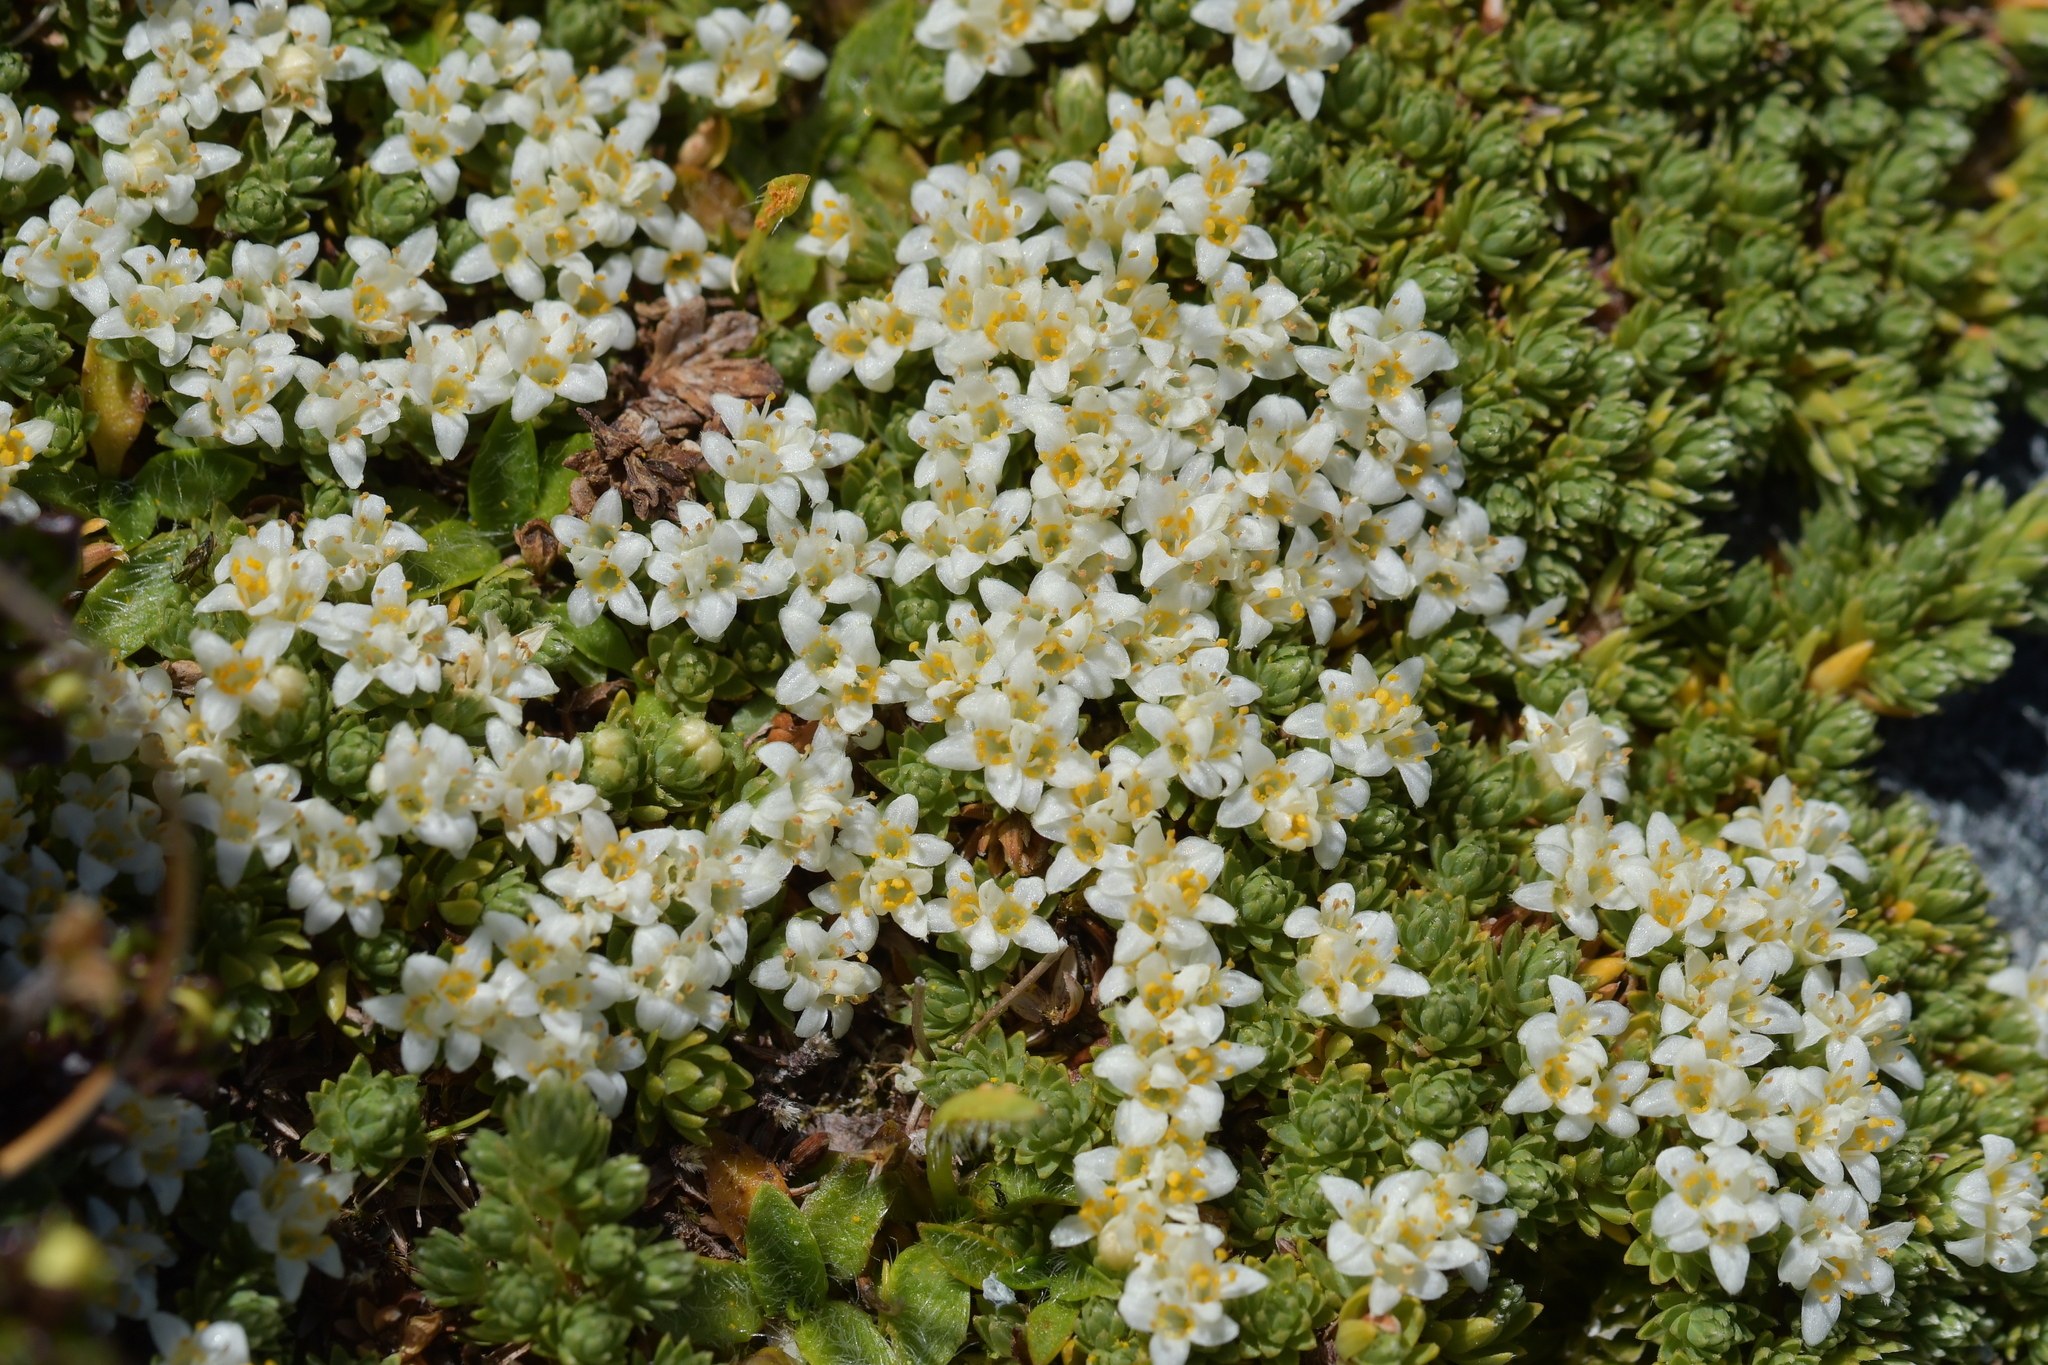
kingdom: Plantae
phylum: Tracheophyta
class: Magnoliopsida
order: Malvales
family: Thymelaeaceae
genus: Kelleria
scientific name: Kelleria croizatii
